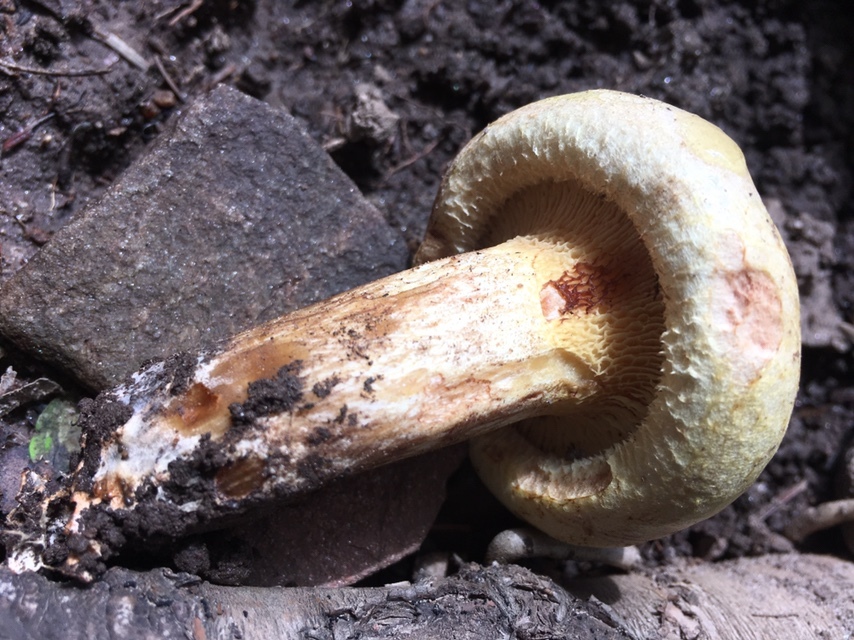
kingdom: Fungi
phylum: Basidiomycota
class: Agaricomycetes
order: Boletales
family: Paxillaceae
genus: Paxillus
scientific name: Paxillus obscurisporus
